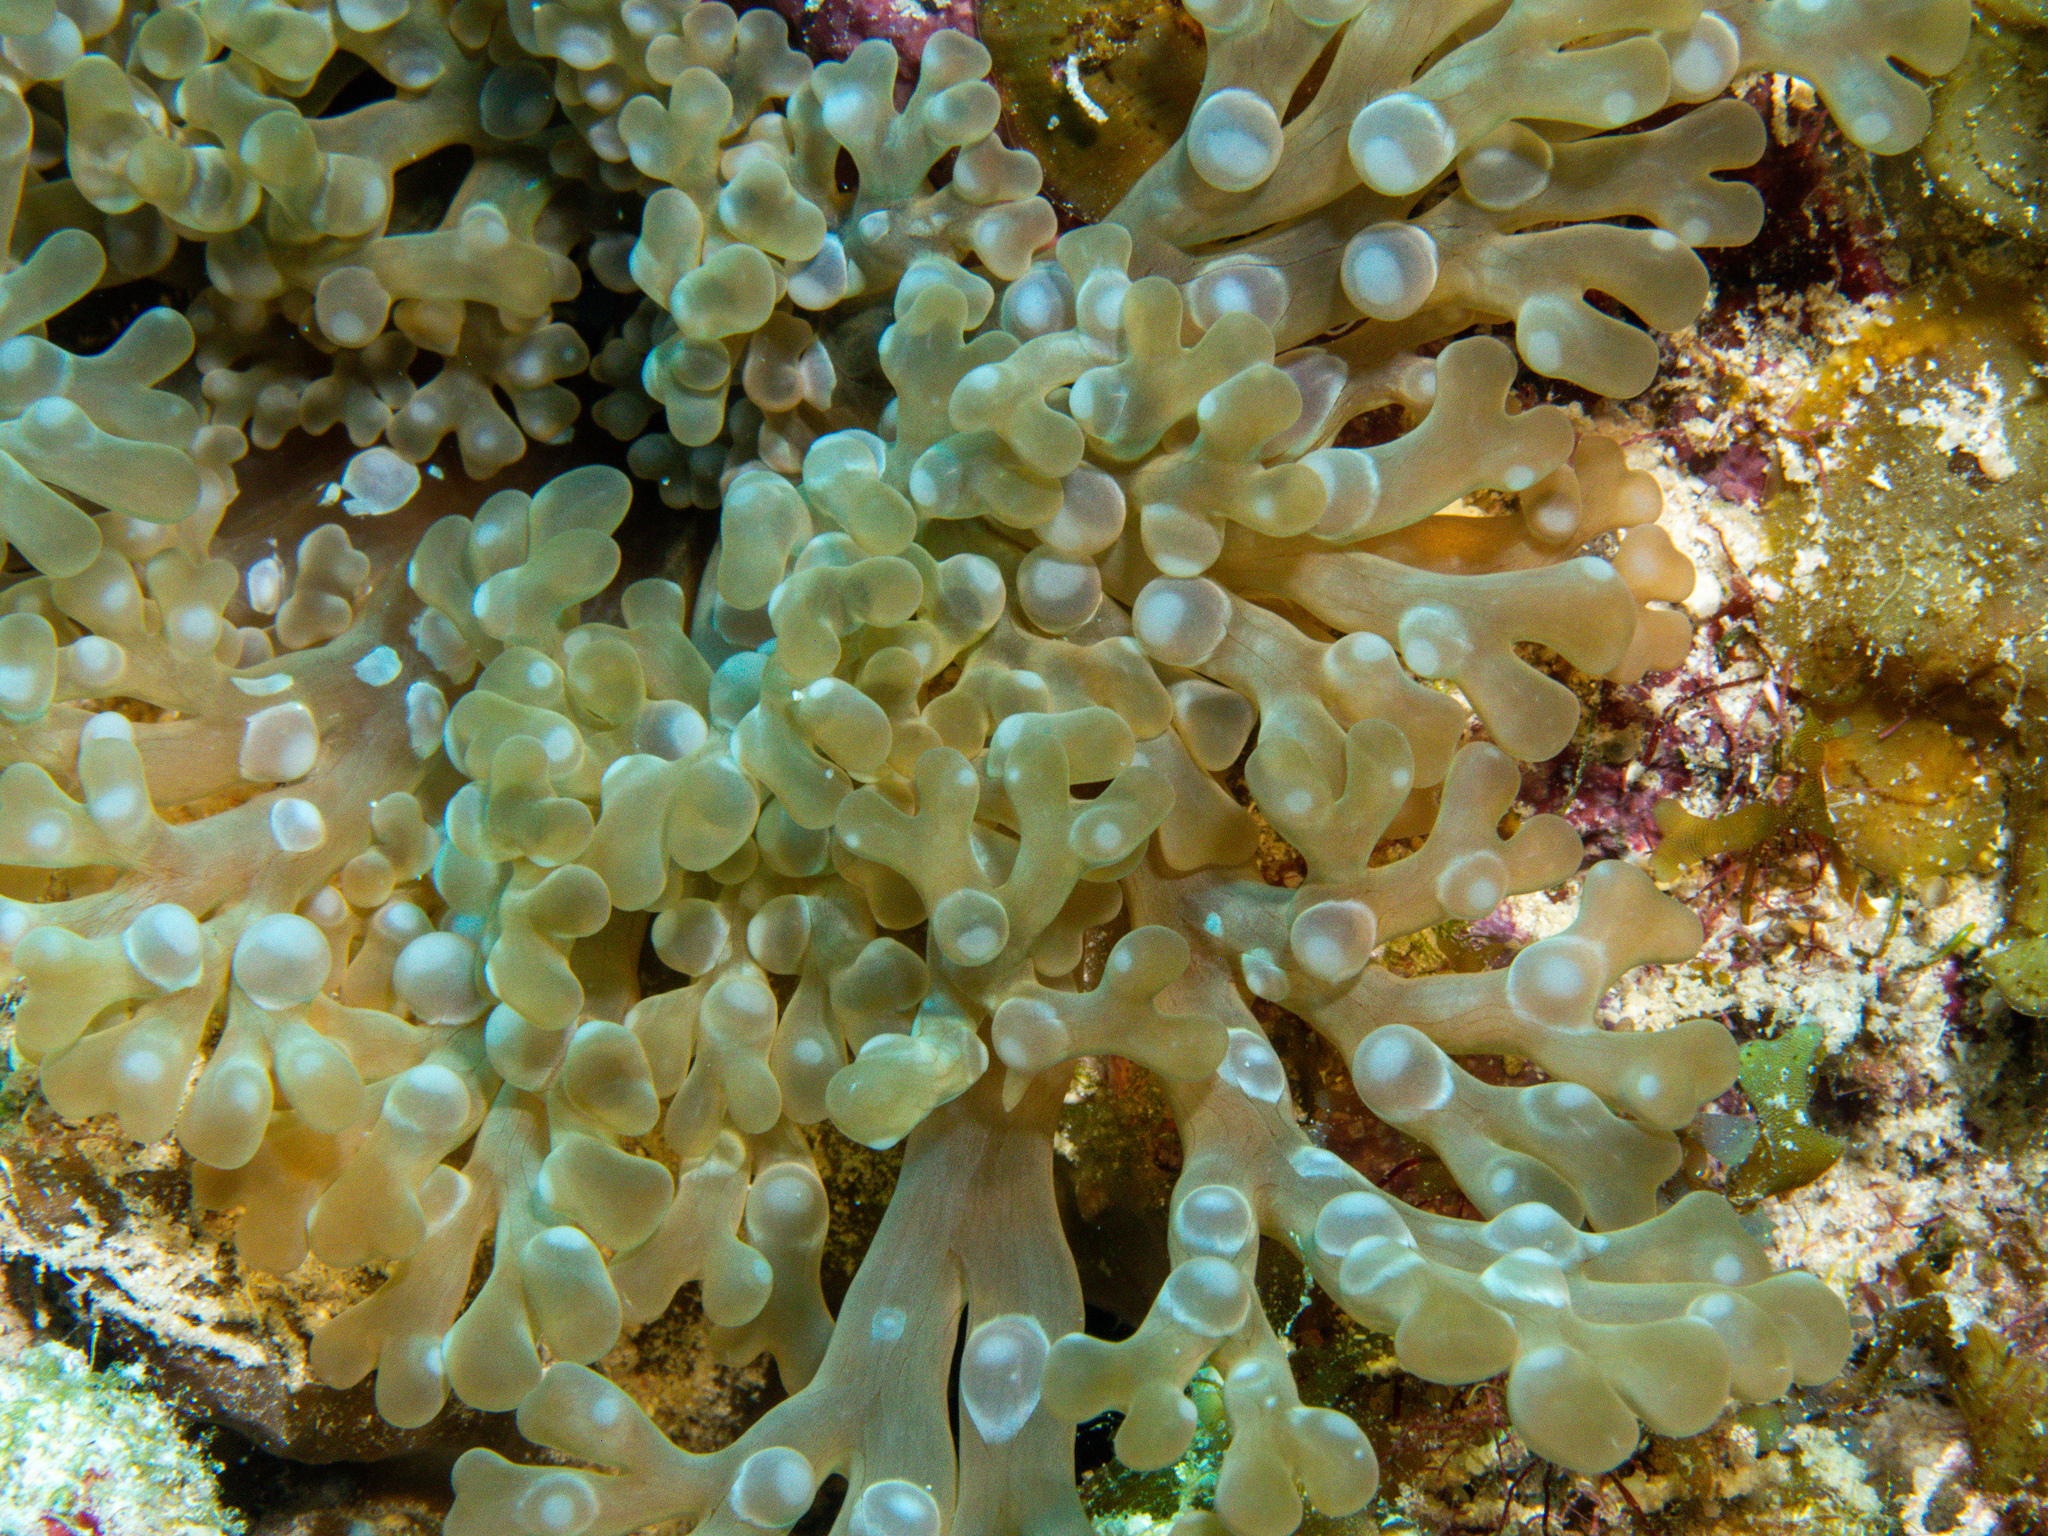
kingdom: Animalia
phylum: Cnidaria
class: Anthozoa
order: Actiniaria
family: Aliciidae
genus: Lebrunia
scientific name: Lebrunia neglecta
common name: Branching anemone
